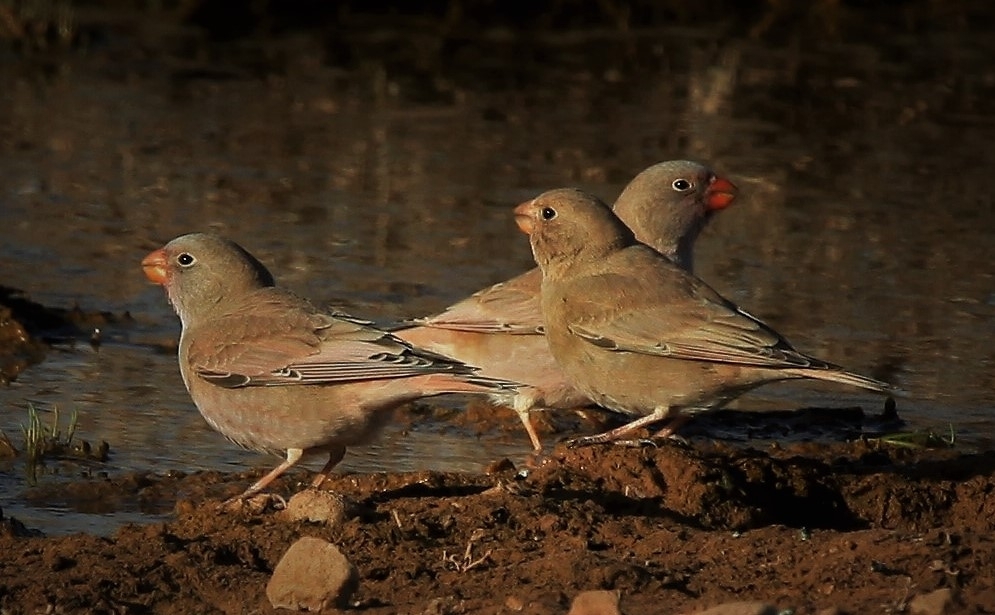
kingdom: Animalia
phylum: Chordata
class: Aves
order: Passeriformes
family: Fringillidae
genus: Bucanetes
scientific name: Bucanetes githagineus
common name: Trumpeter finch
